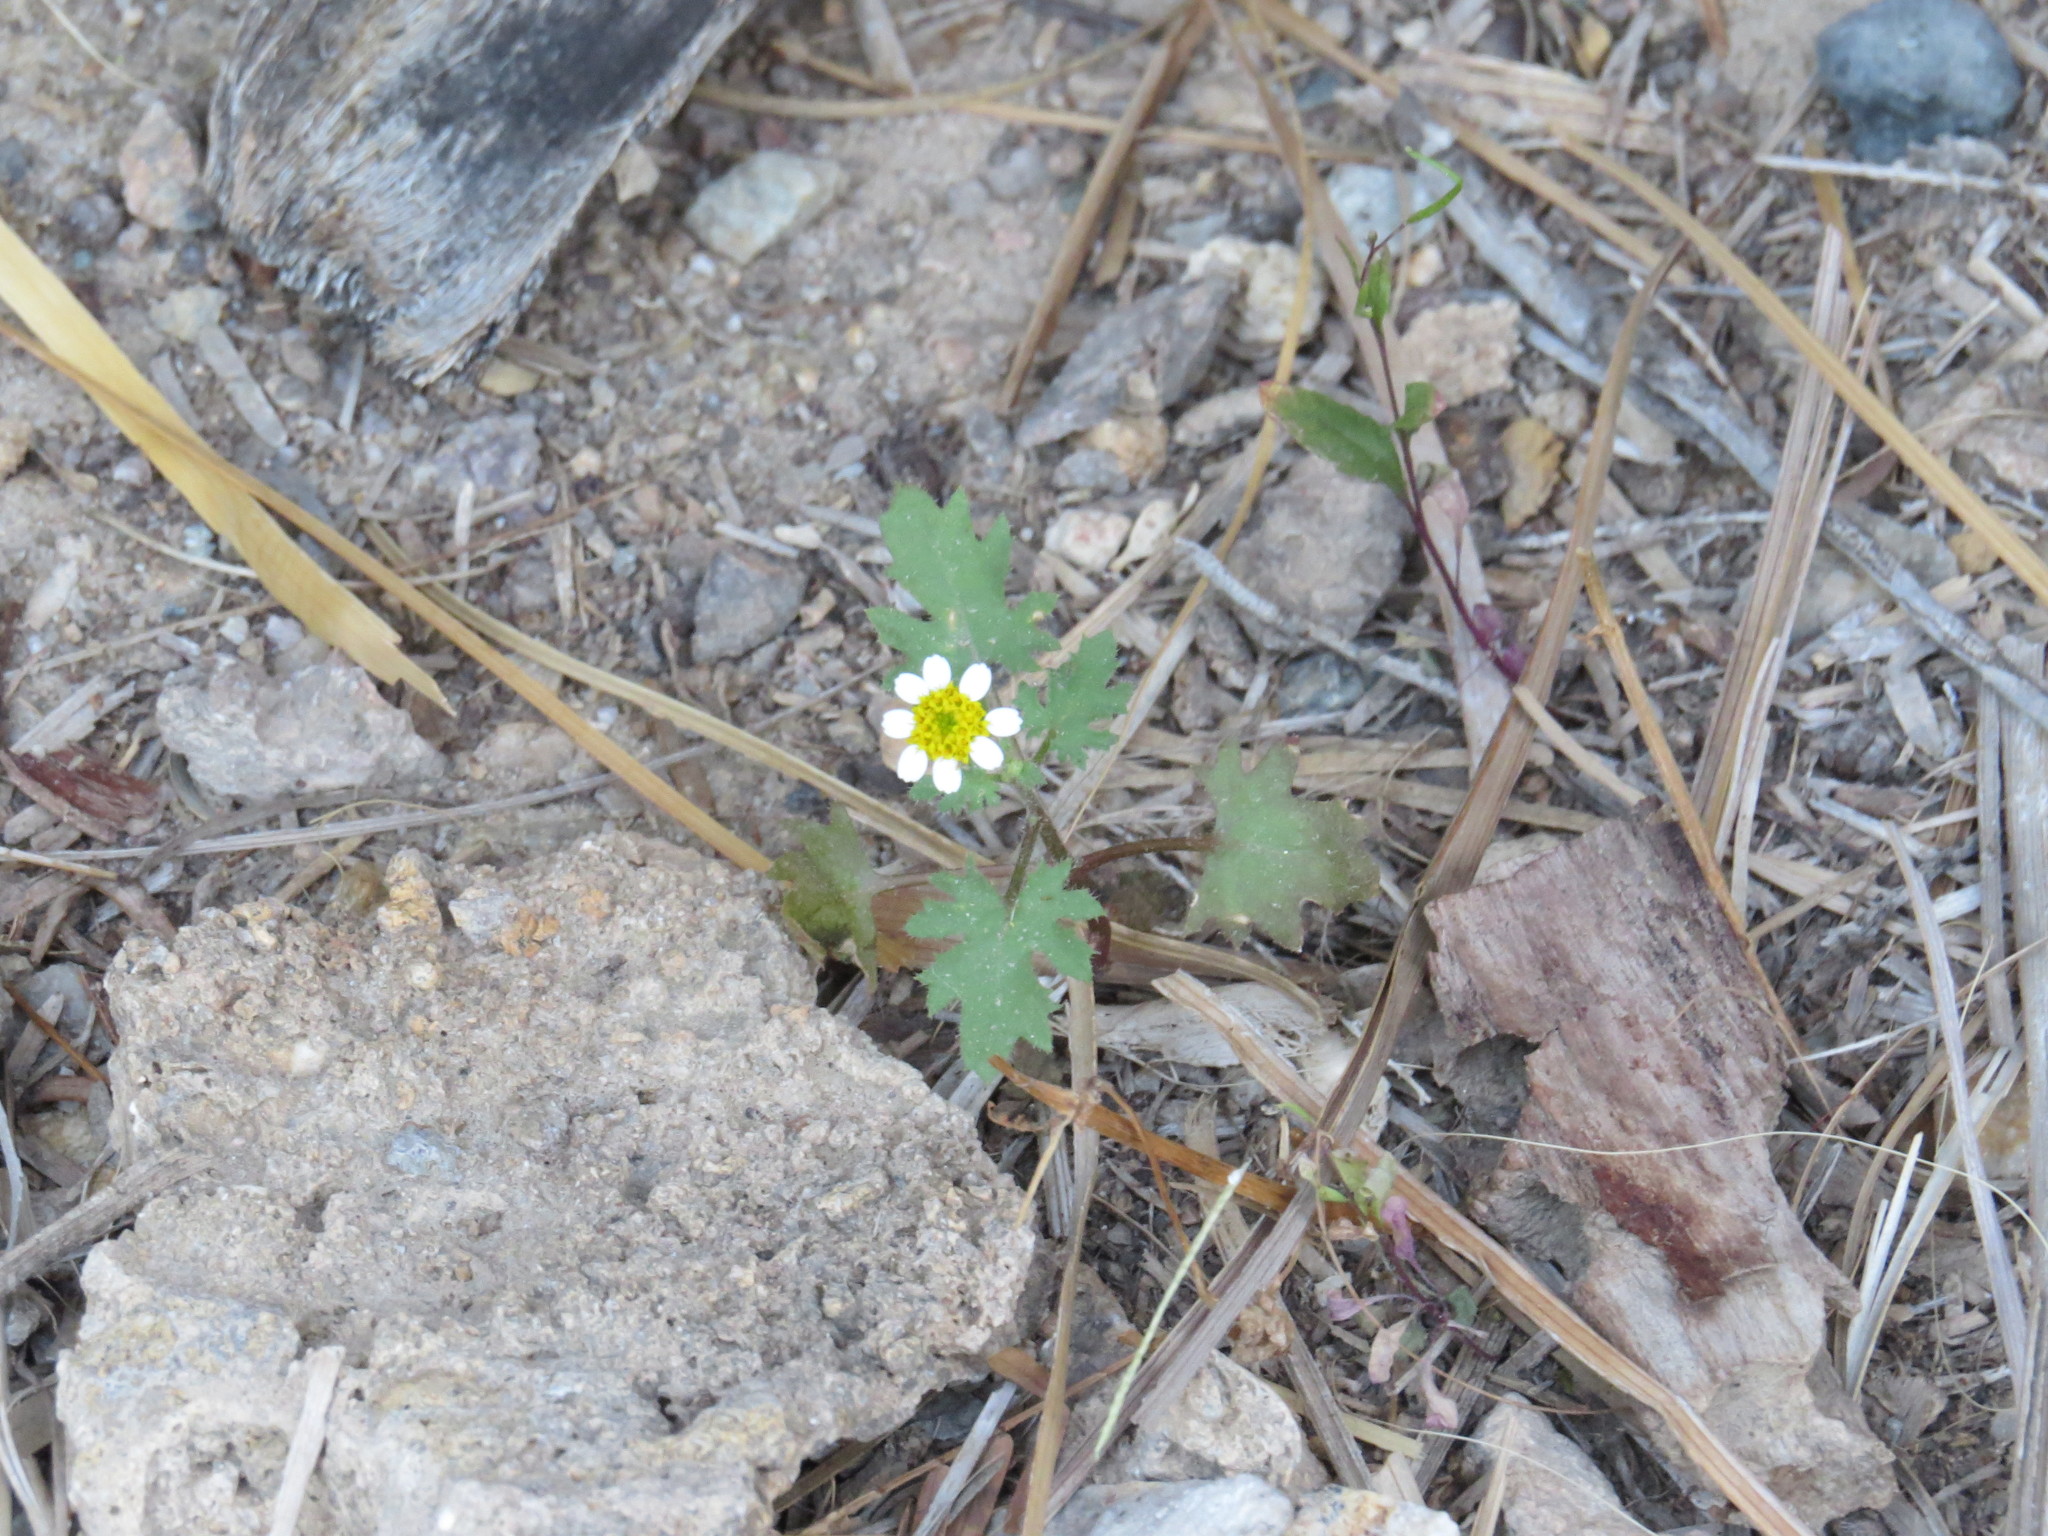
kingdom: Plantae
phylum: Tracheophyta
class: Magnoliopsida
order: Asterales
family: Asteraceae
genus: Laphamia
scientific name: Laphamia emoryi
